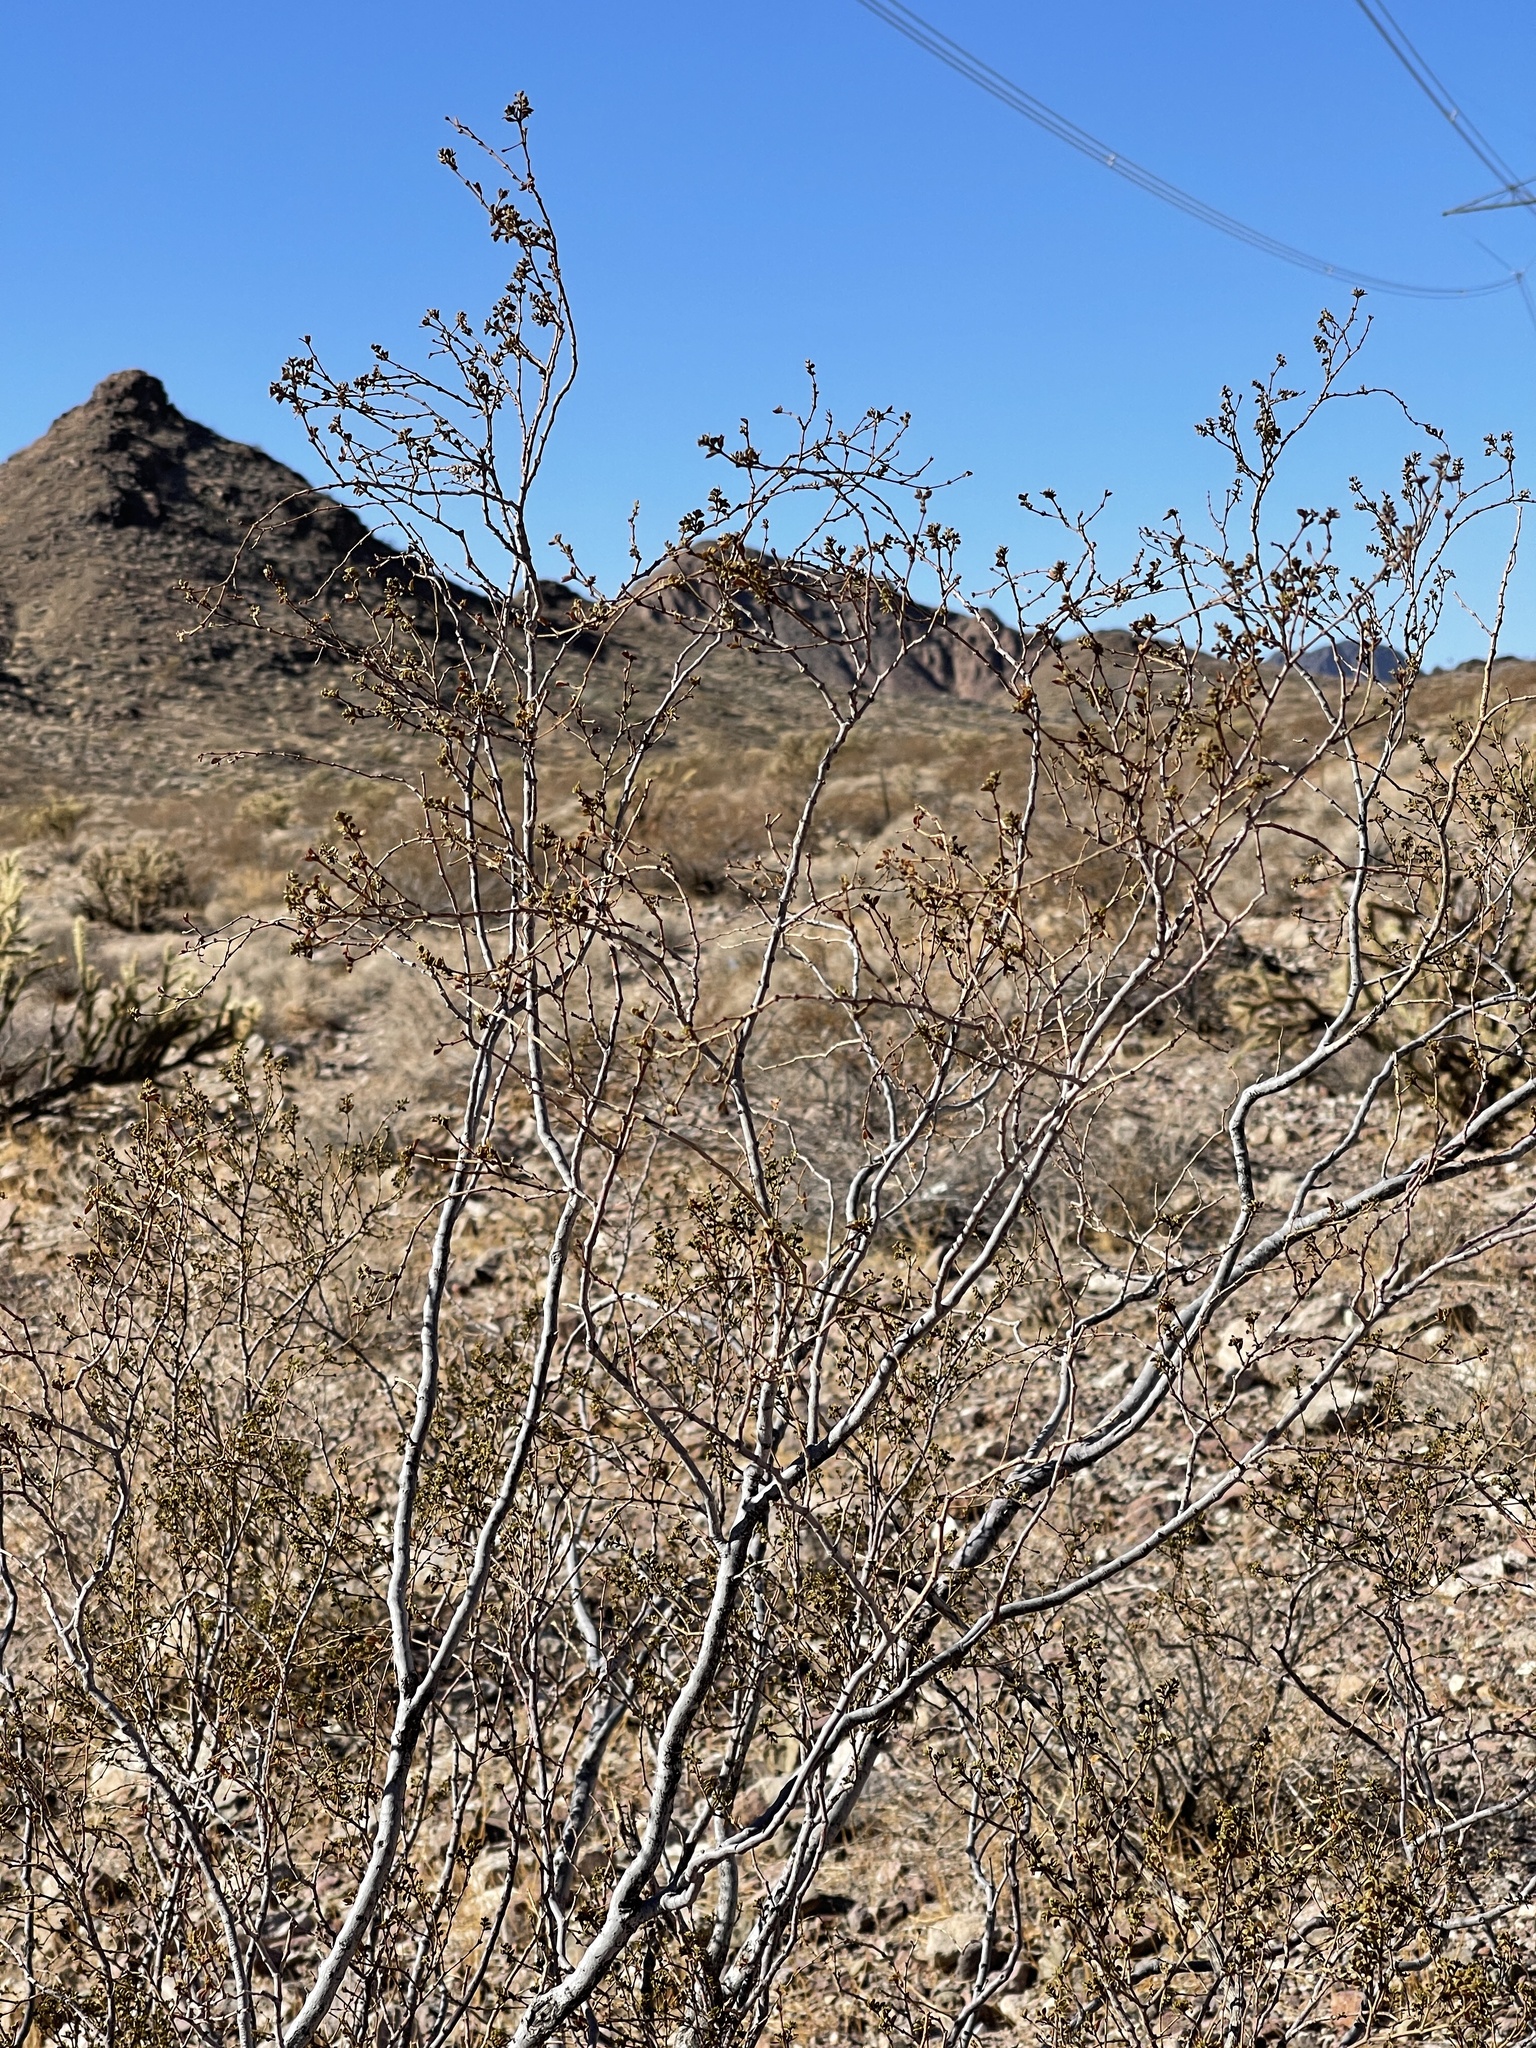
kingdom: Plantae
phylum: Tracheophyta
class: Magnoliopsida
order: Zygophyllales
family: Zygophyllaceae
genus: Larrea
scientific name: Larrea tridentata
